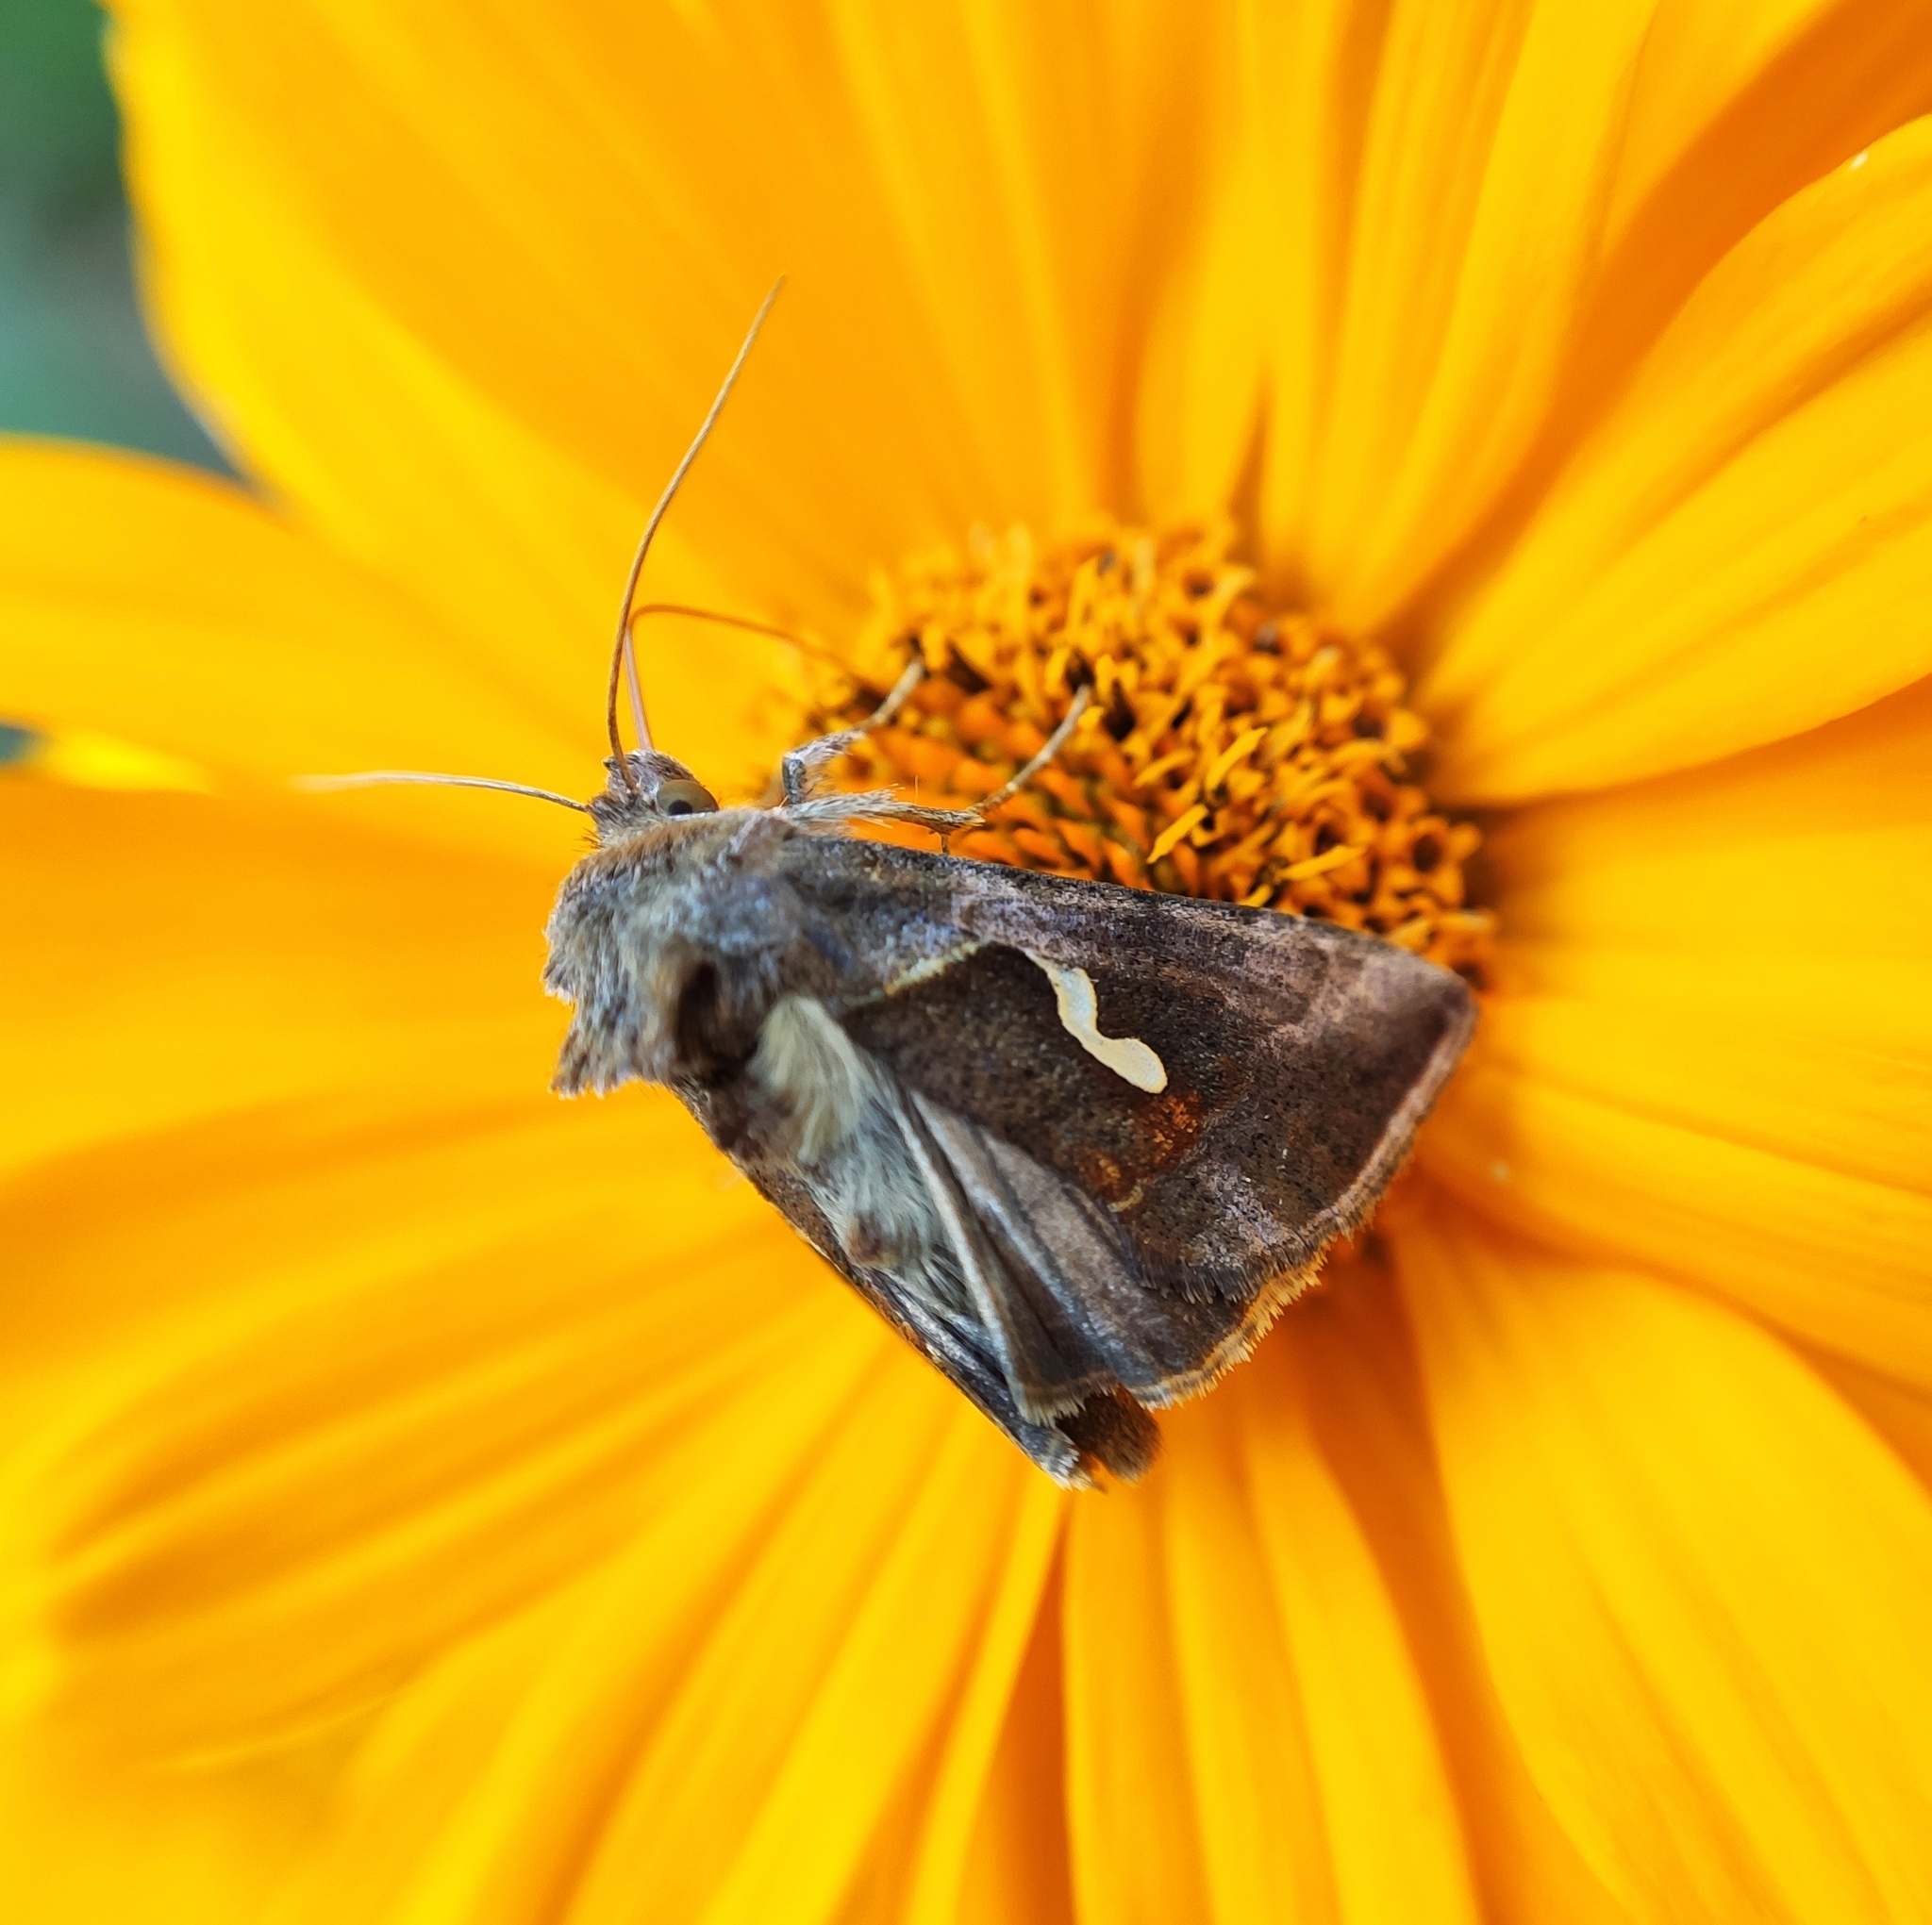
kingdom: Animalia
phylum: Arthropoda
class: Insecta
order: Lepidoptera
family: Noctuidae
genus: Macdunnoughia
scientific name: Macdunnoughia confusa
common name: Dewick's plusia
